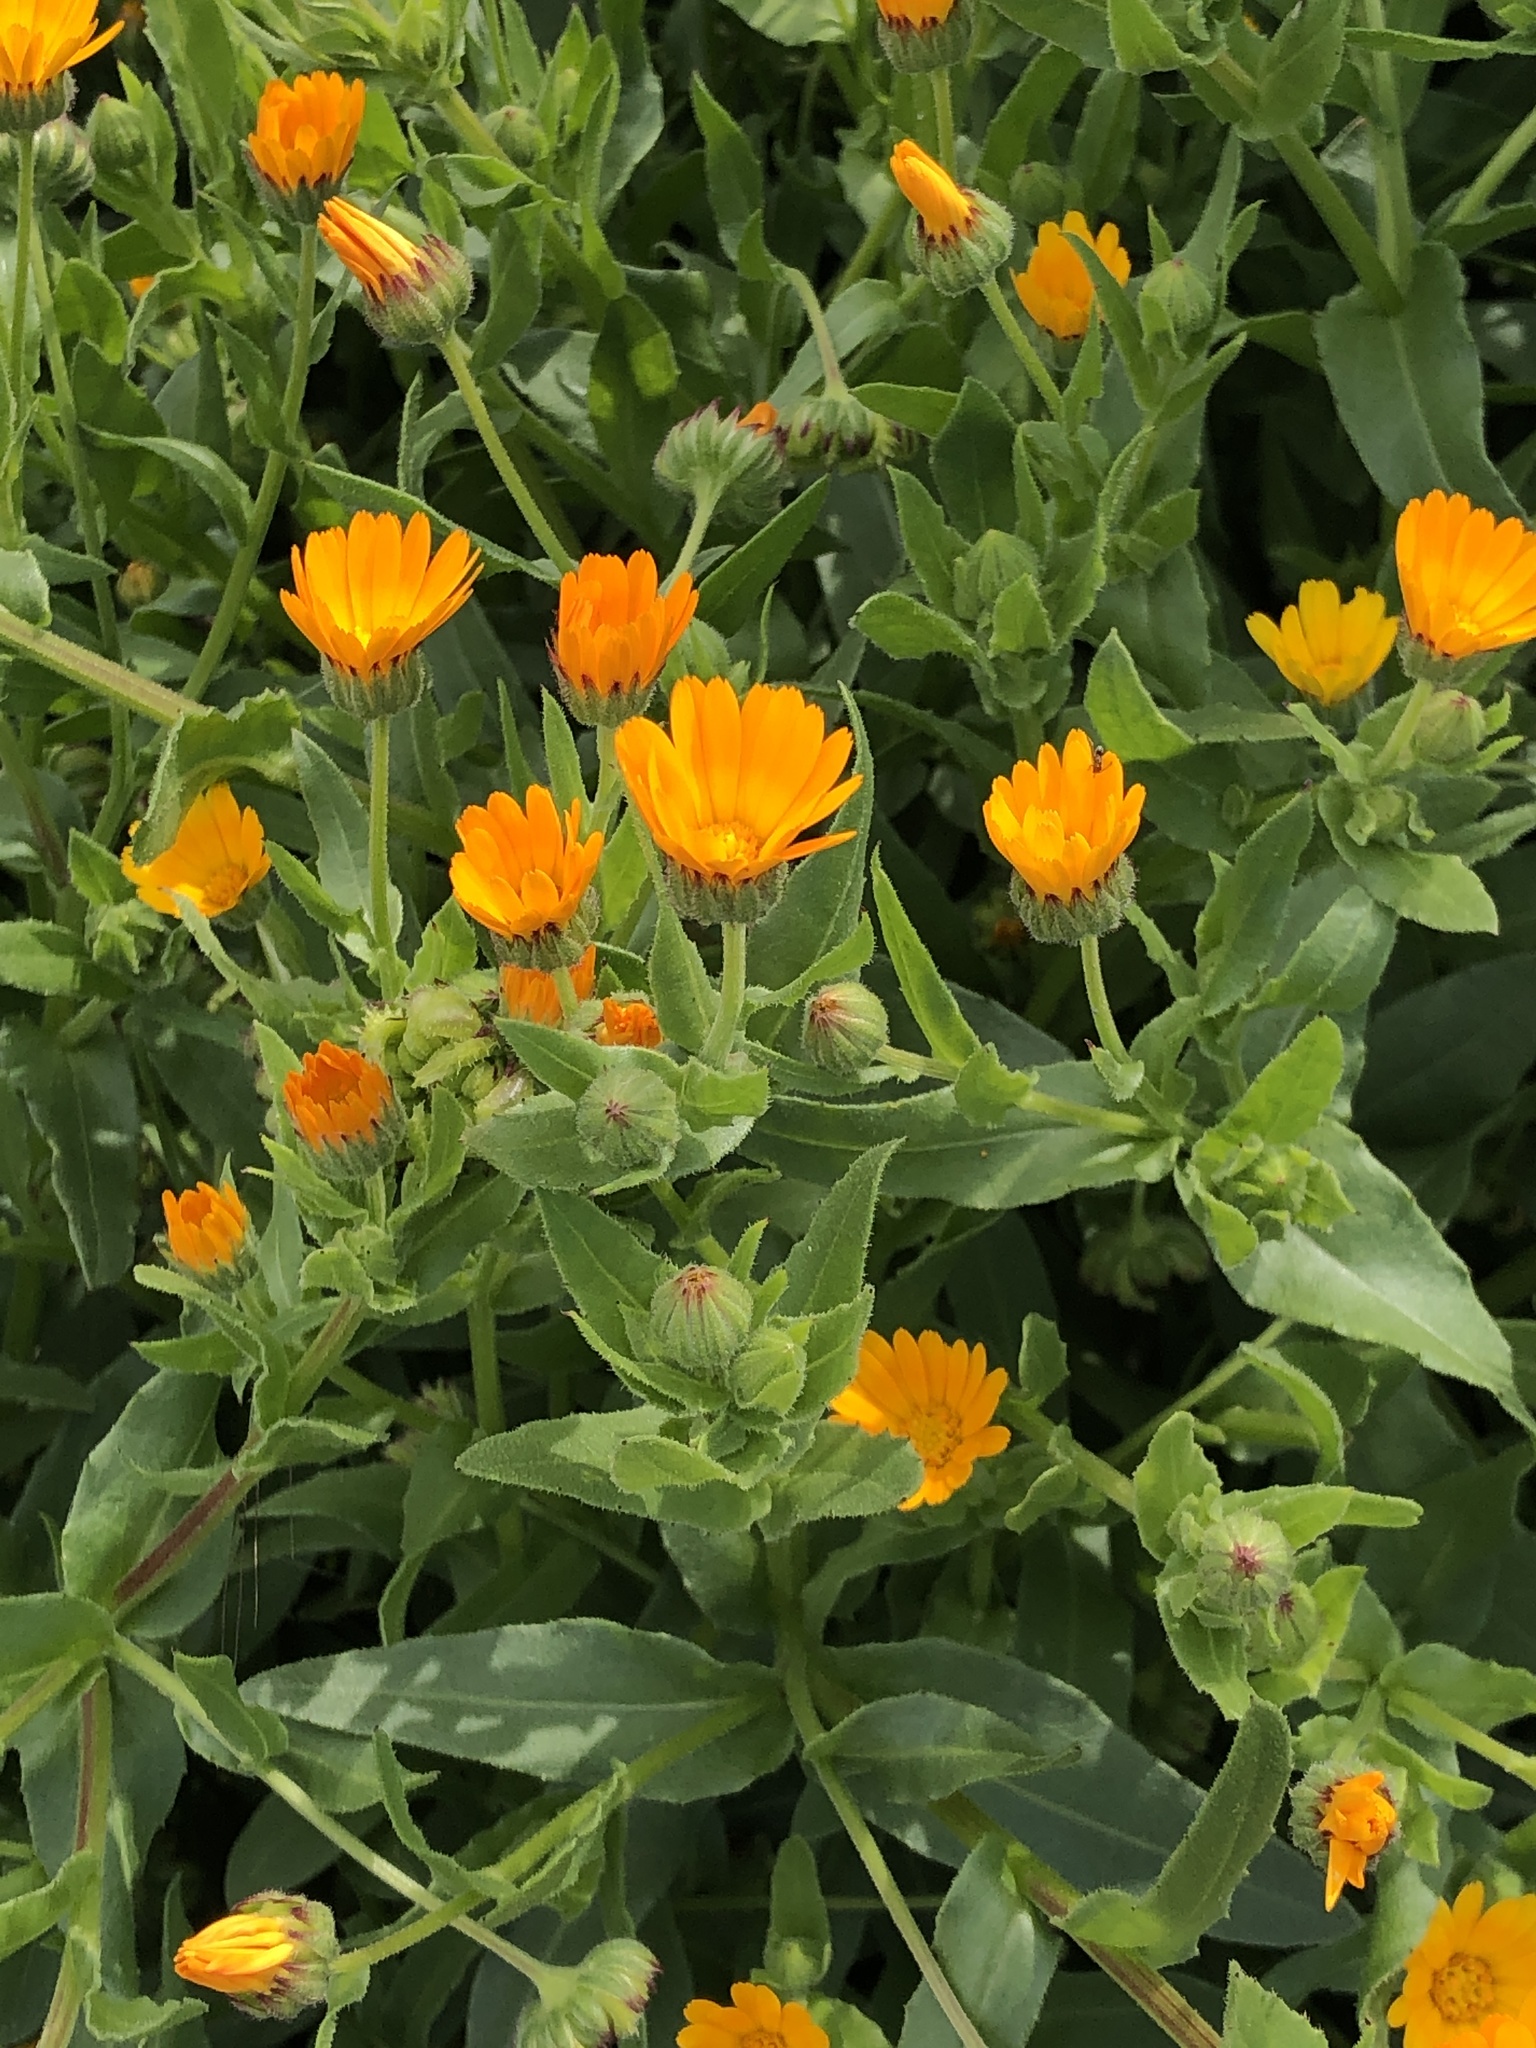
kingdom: Plantae
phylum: Tracheophyta
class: Magnoliopsida
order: Asterales
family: Asteraceae
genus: Calendula
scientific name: Calendula arvensis
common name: Field marigold
